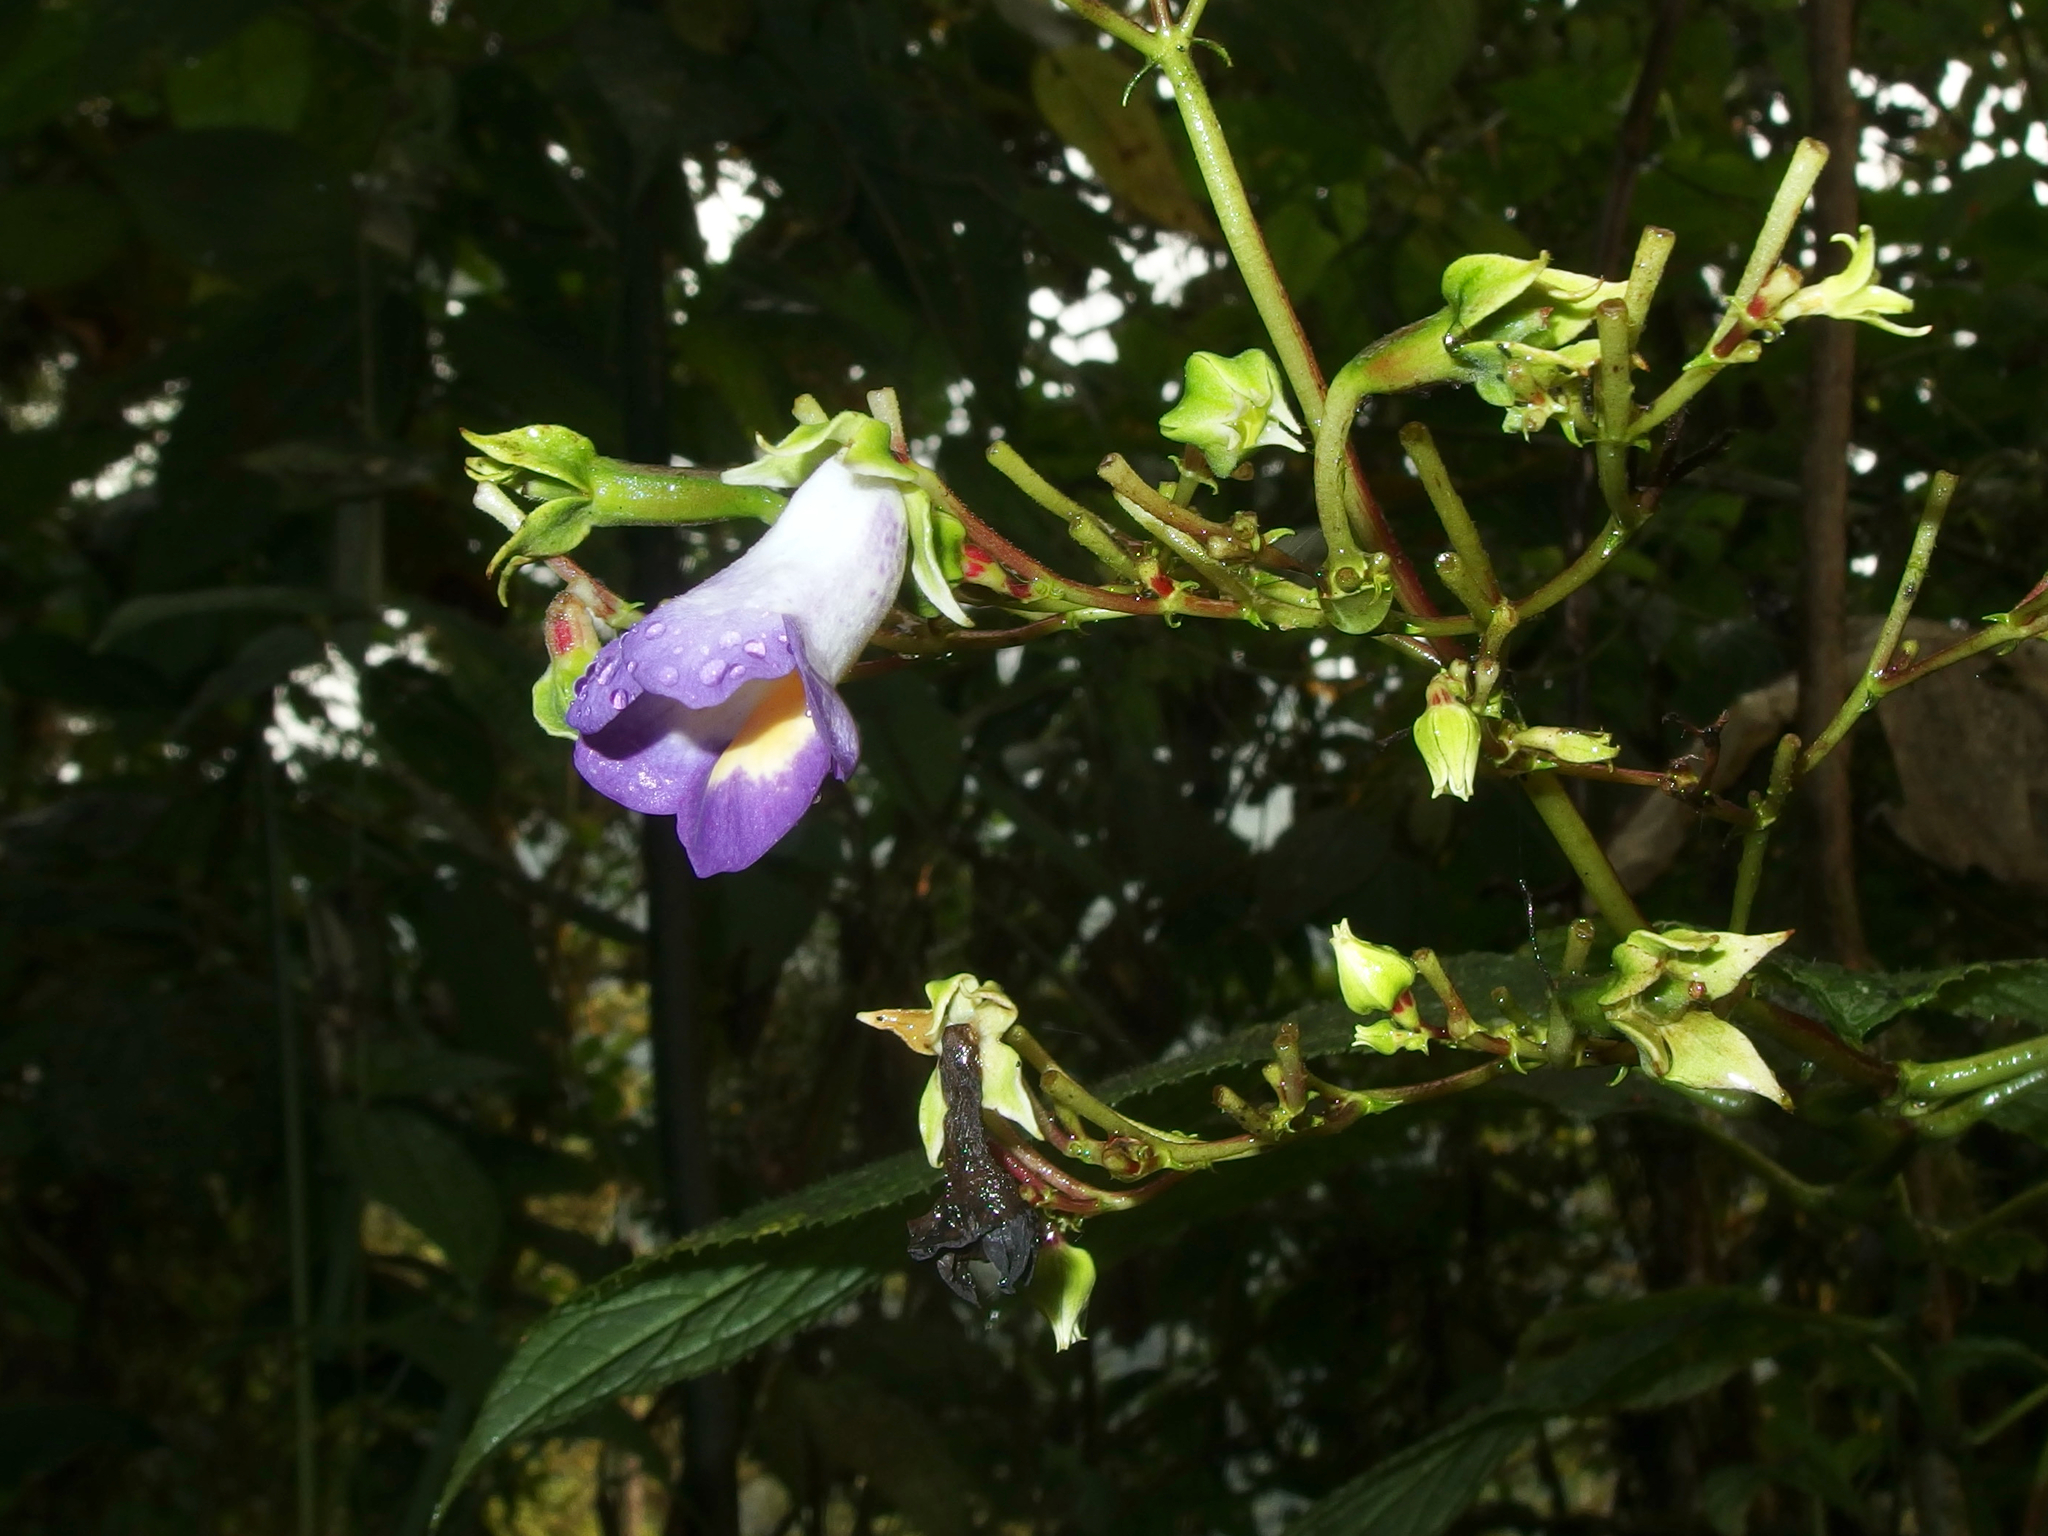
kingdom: Plantae
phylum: Tracheophyta
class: Magnoliopsida
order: Lamiales
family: Gesneriaceae
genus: Monopyle
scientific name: Monopyle ecuadorensis
